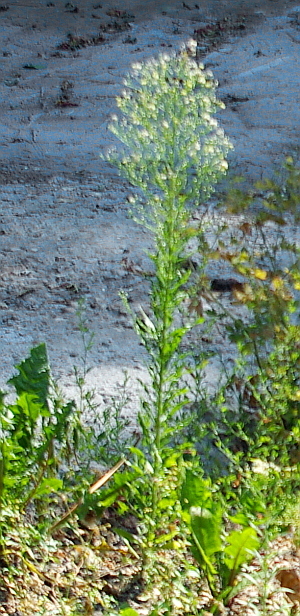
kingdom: Plantae
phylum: Tracheophyta
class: Magnoliopsida
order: Asterales
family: Asteraceae
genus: Erigeron
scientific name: Erigeron canadensis
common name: Canadian fleabane
